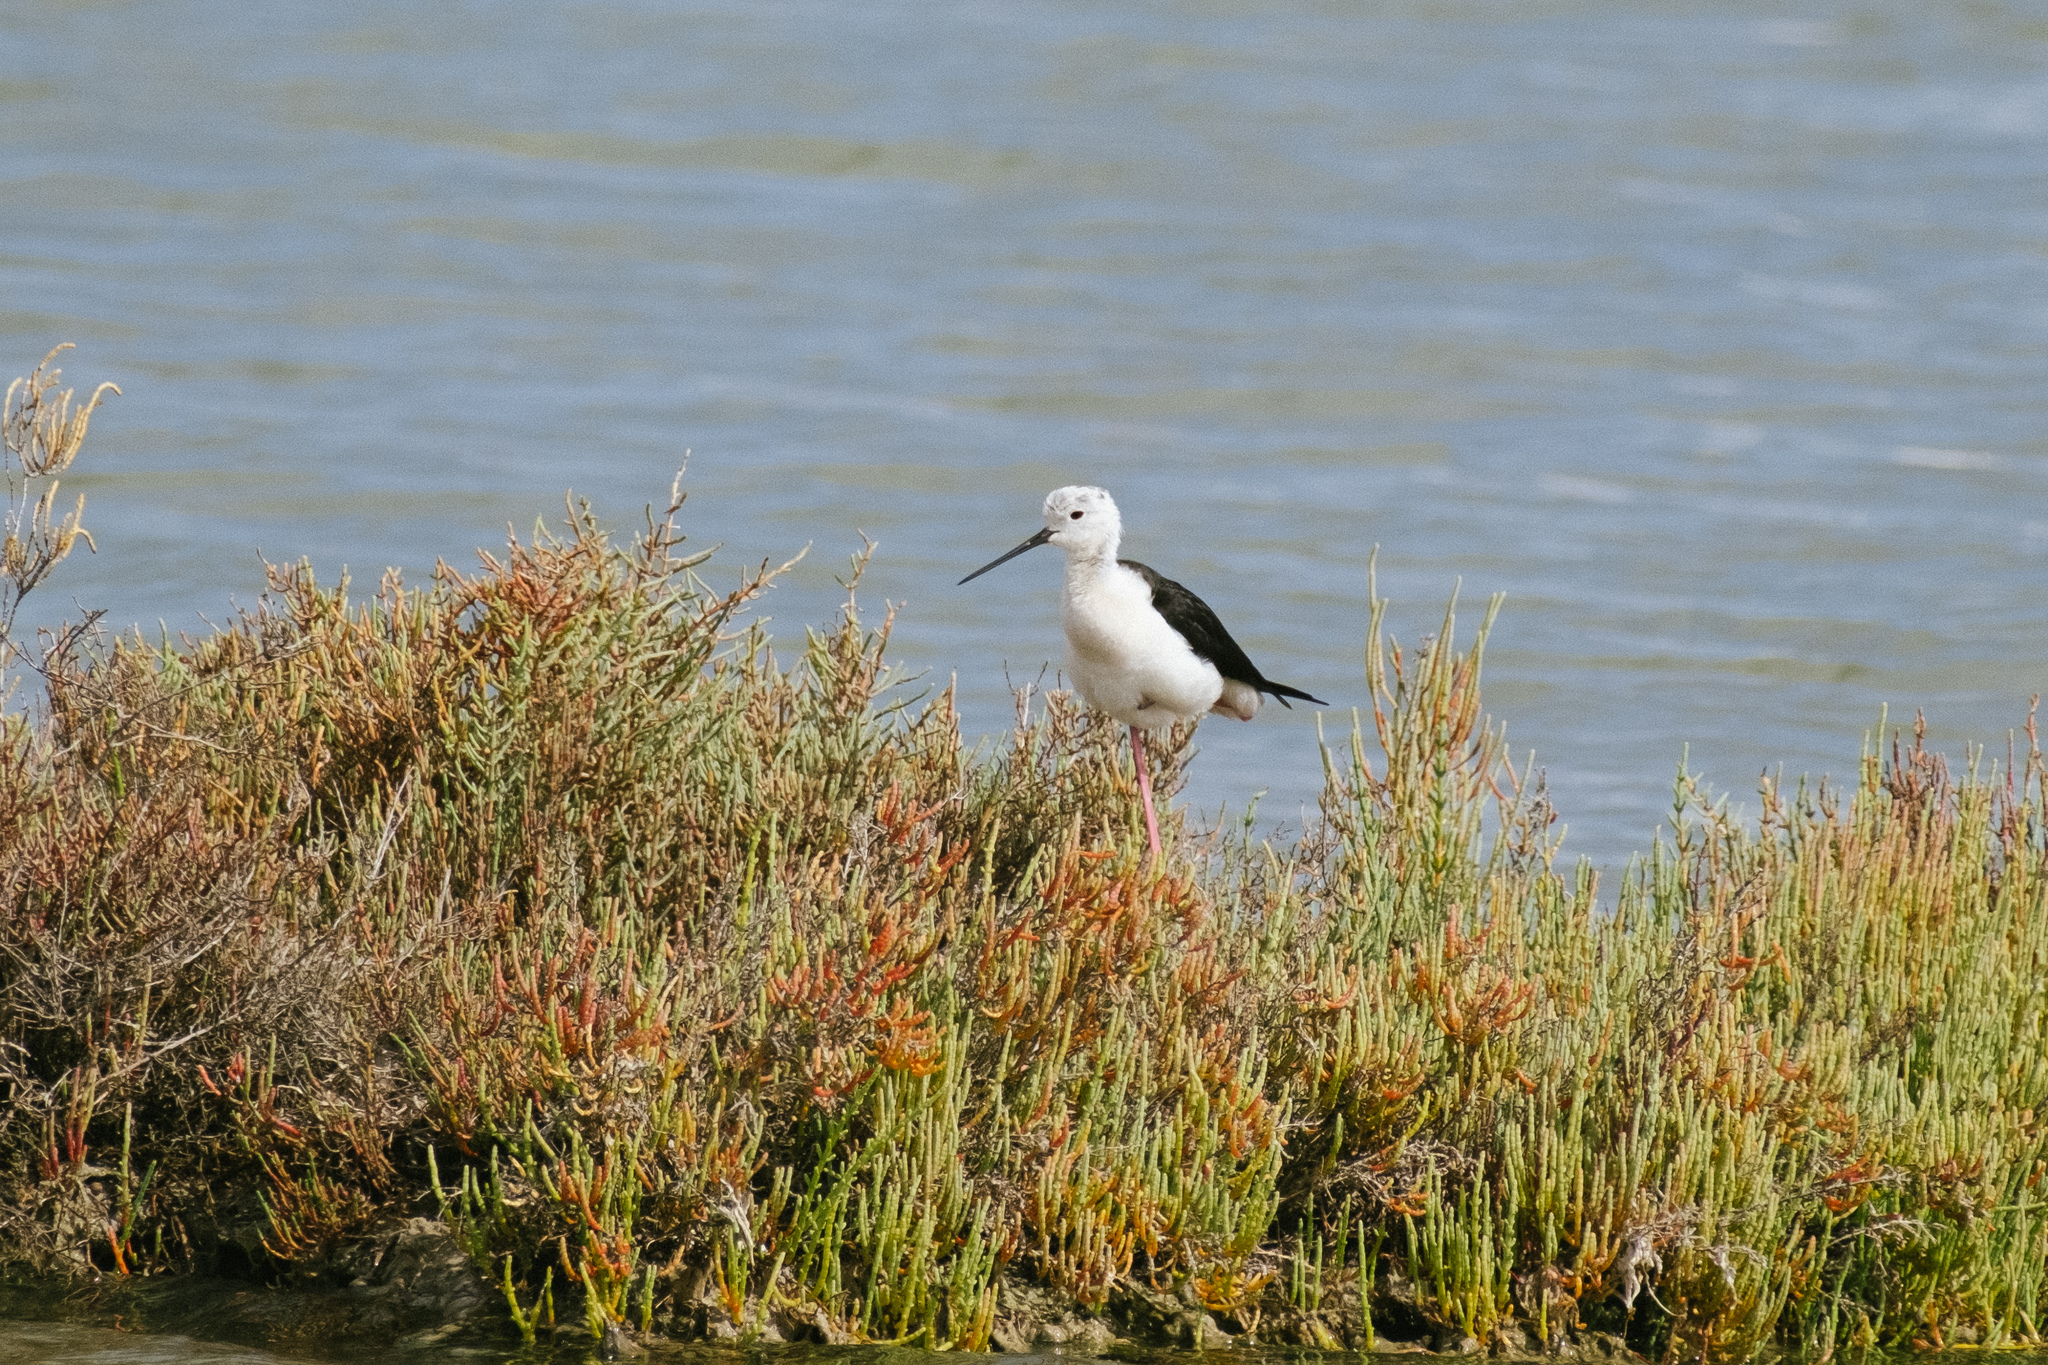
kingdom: Animalia
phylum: Chordata
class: Aves
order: Charadriiformes
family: Recurvirostridae
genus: Himantopus
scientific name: Himantopus himantopus
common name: Black-winged stilt
